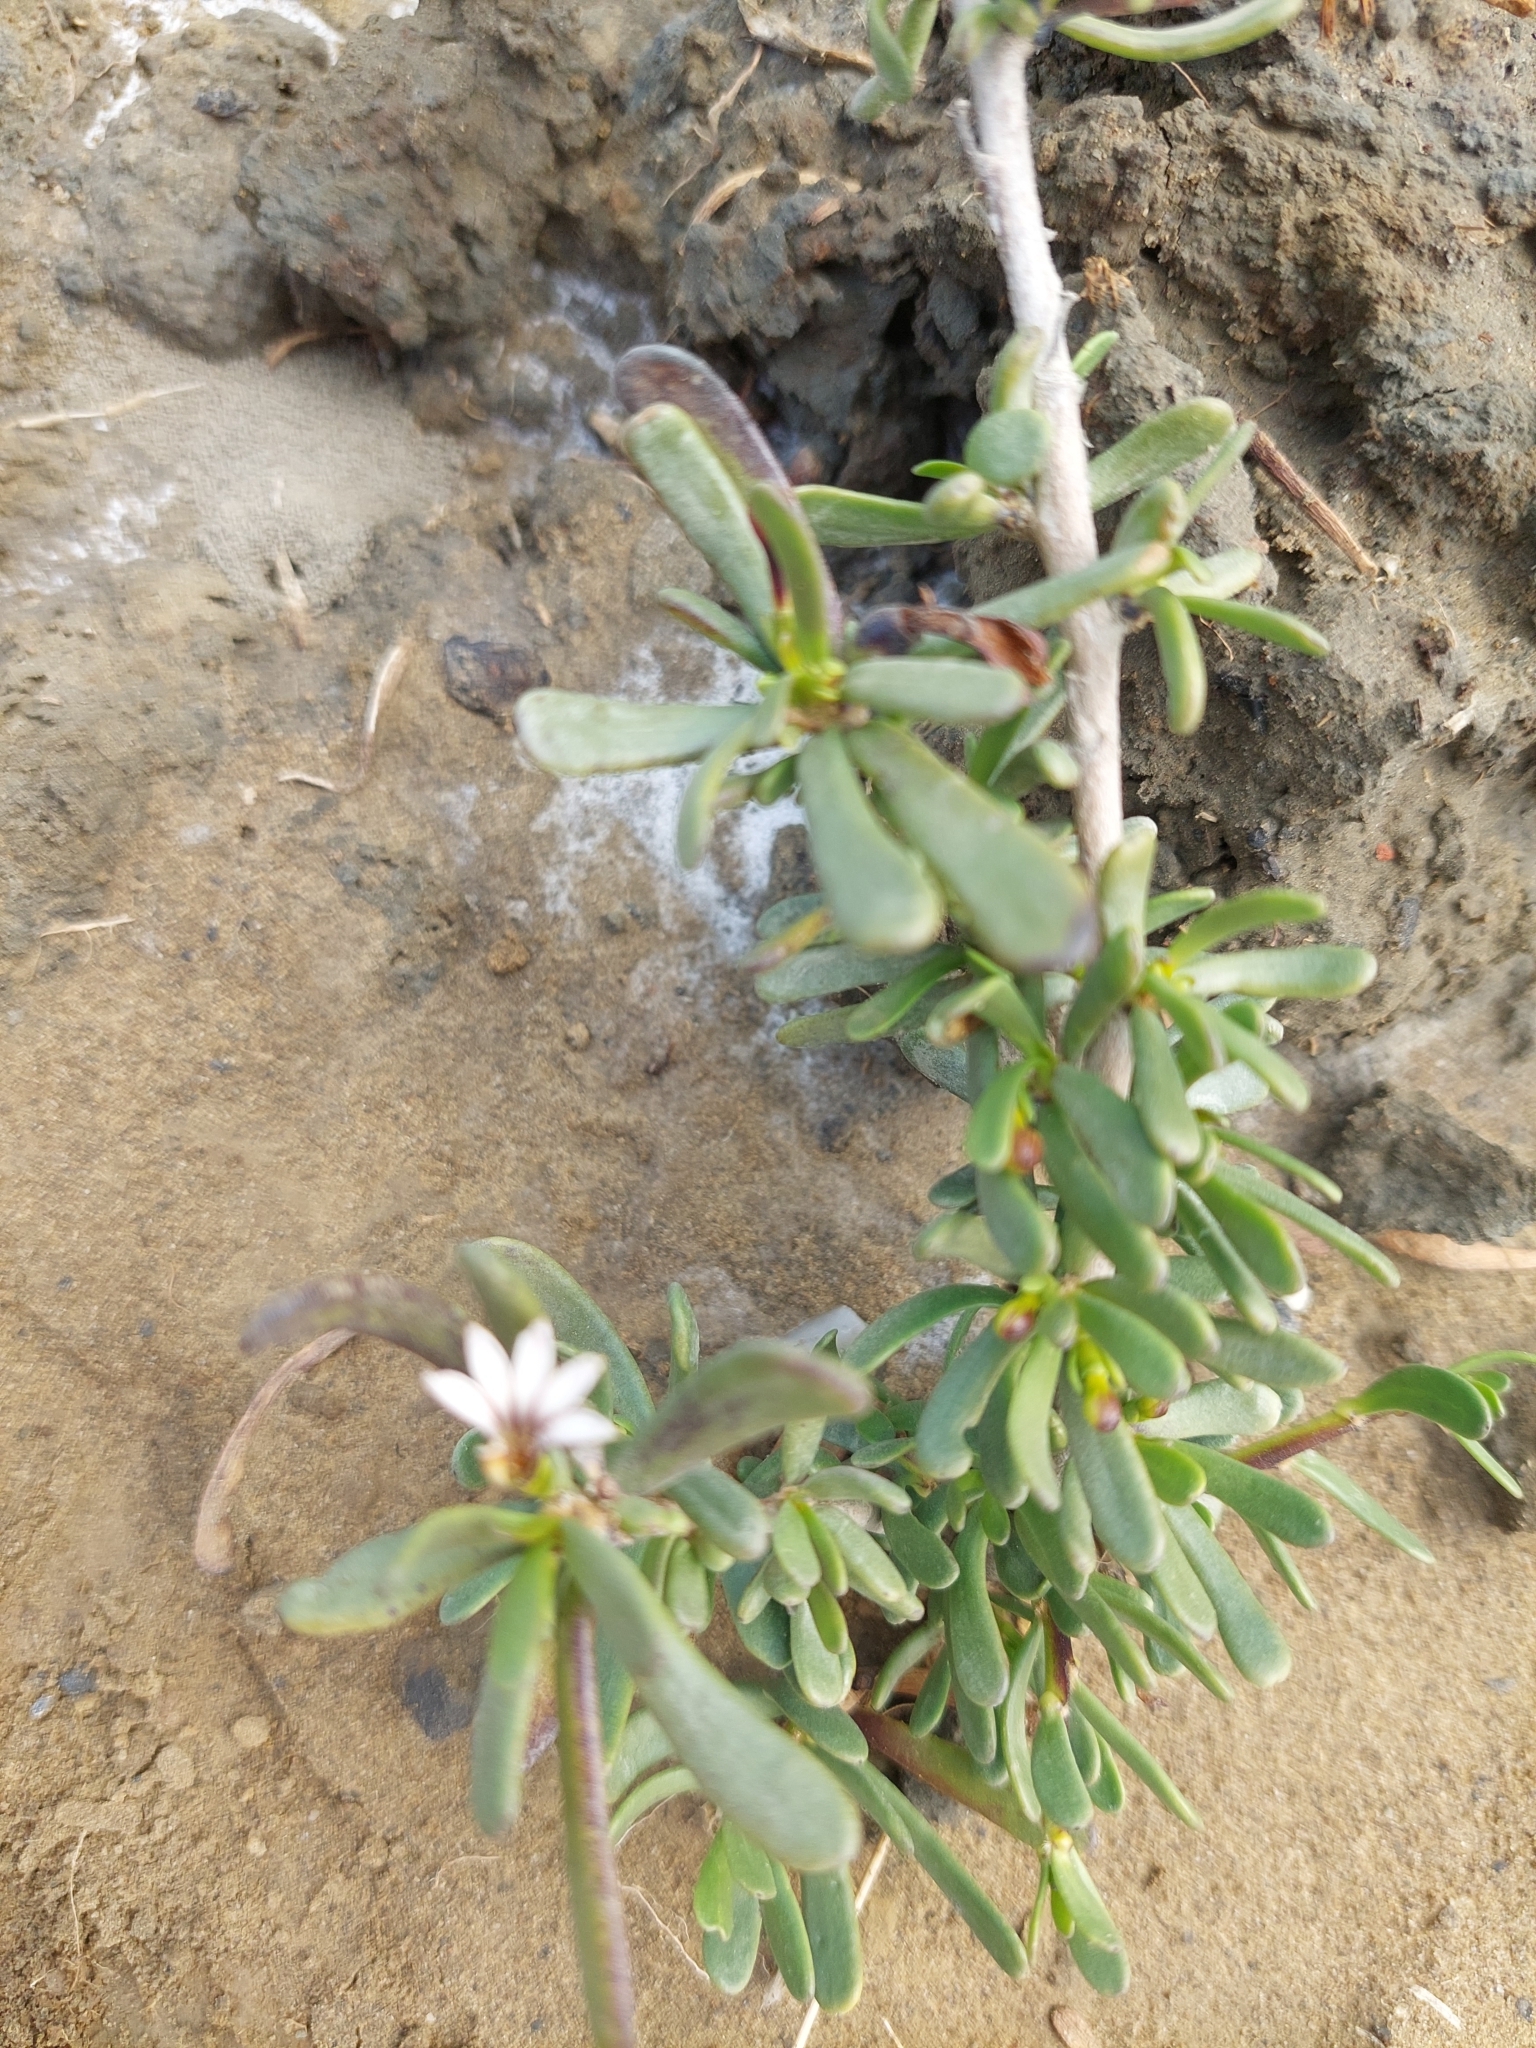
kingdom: Plantae
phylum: Tracheophyta
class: Magnoliopsida
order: Asterales
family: Goodeniaceae
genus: Scaevola
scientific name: Scaevola hainanensis
